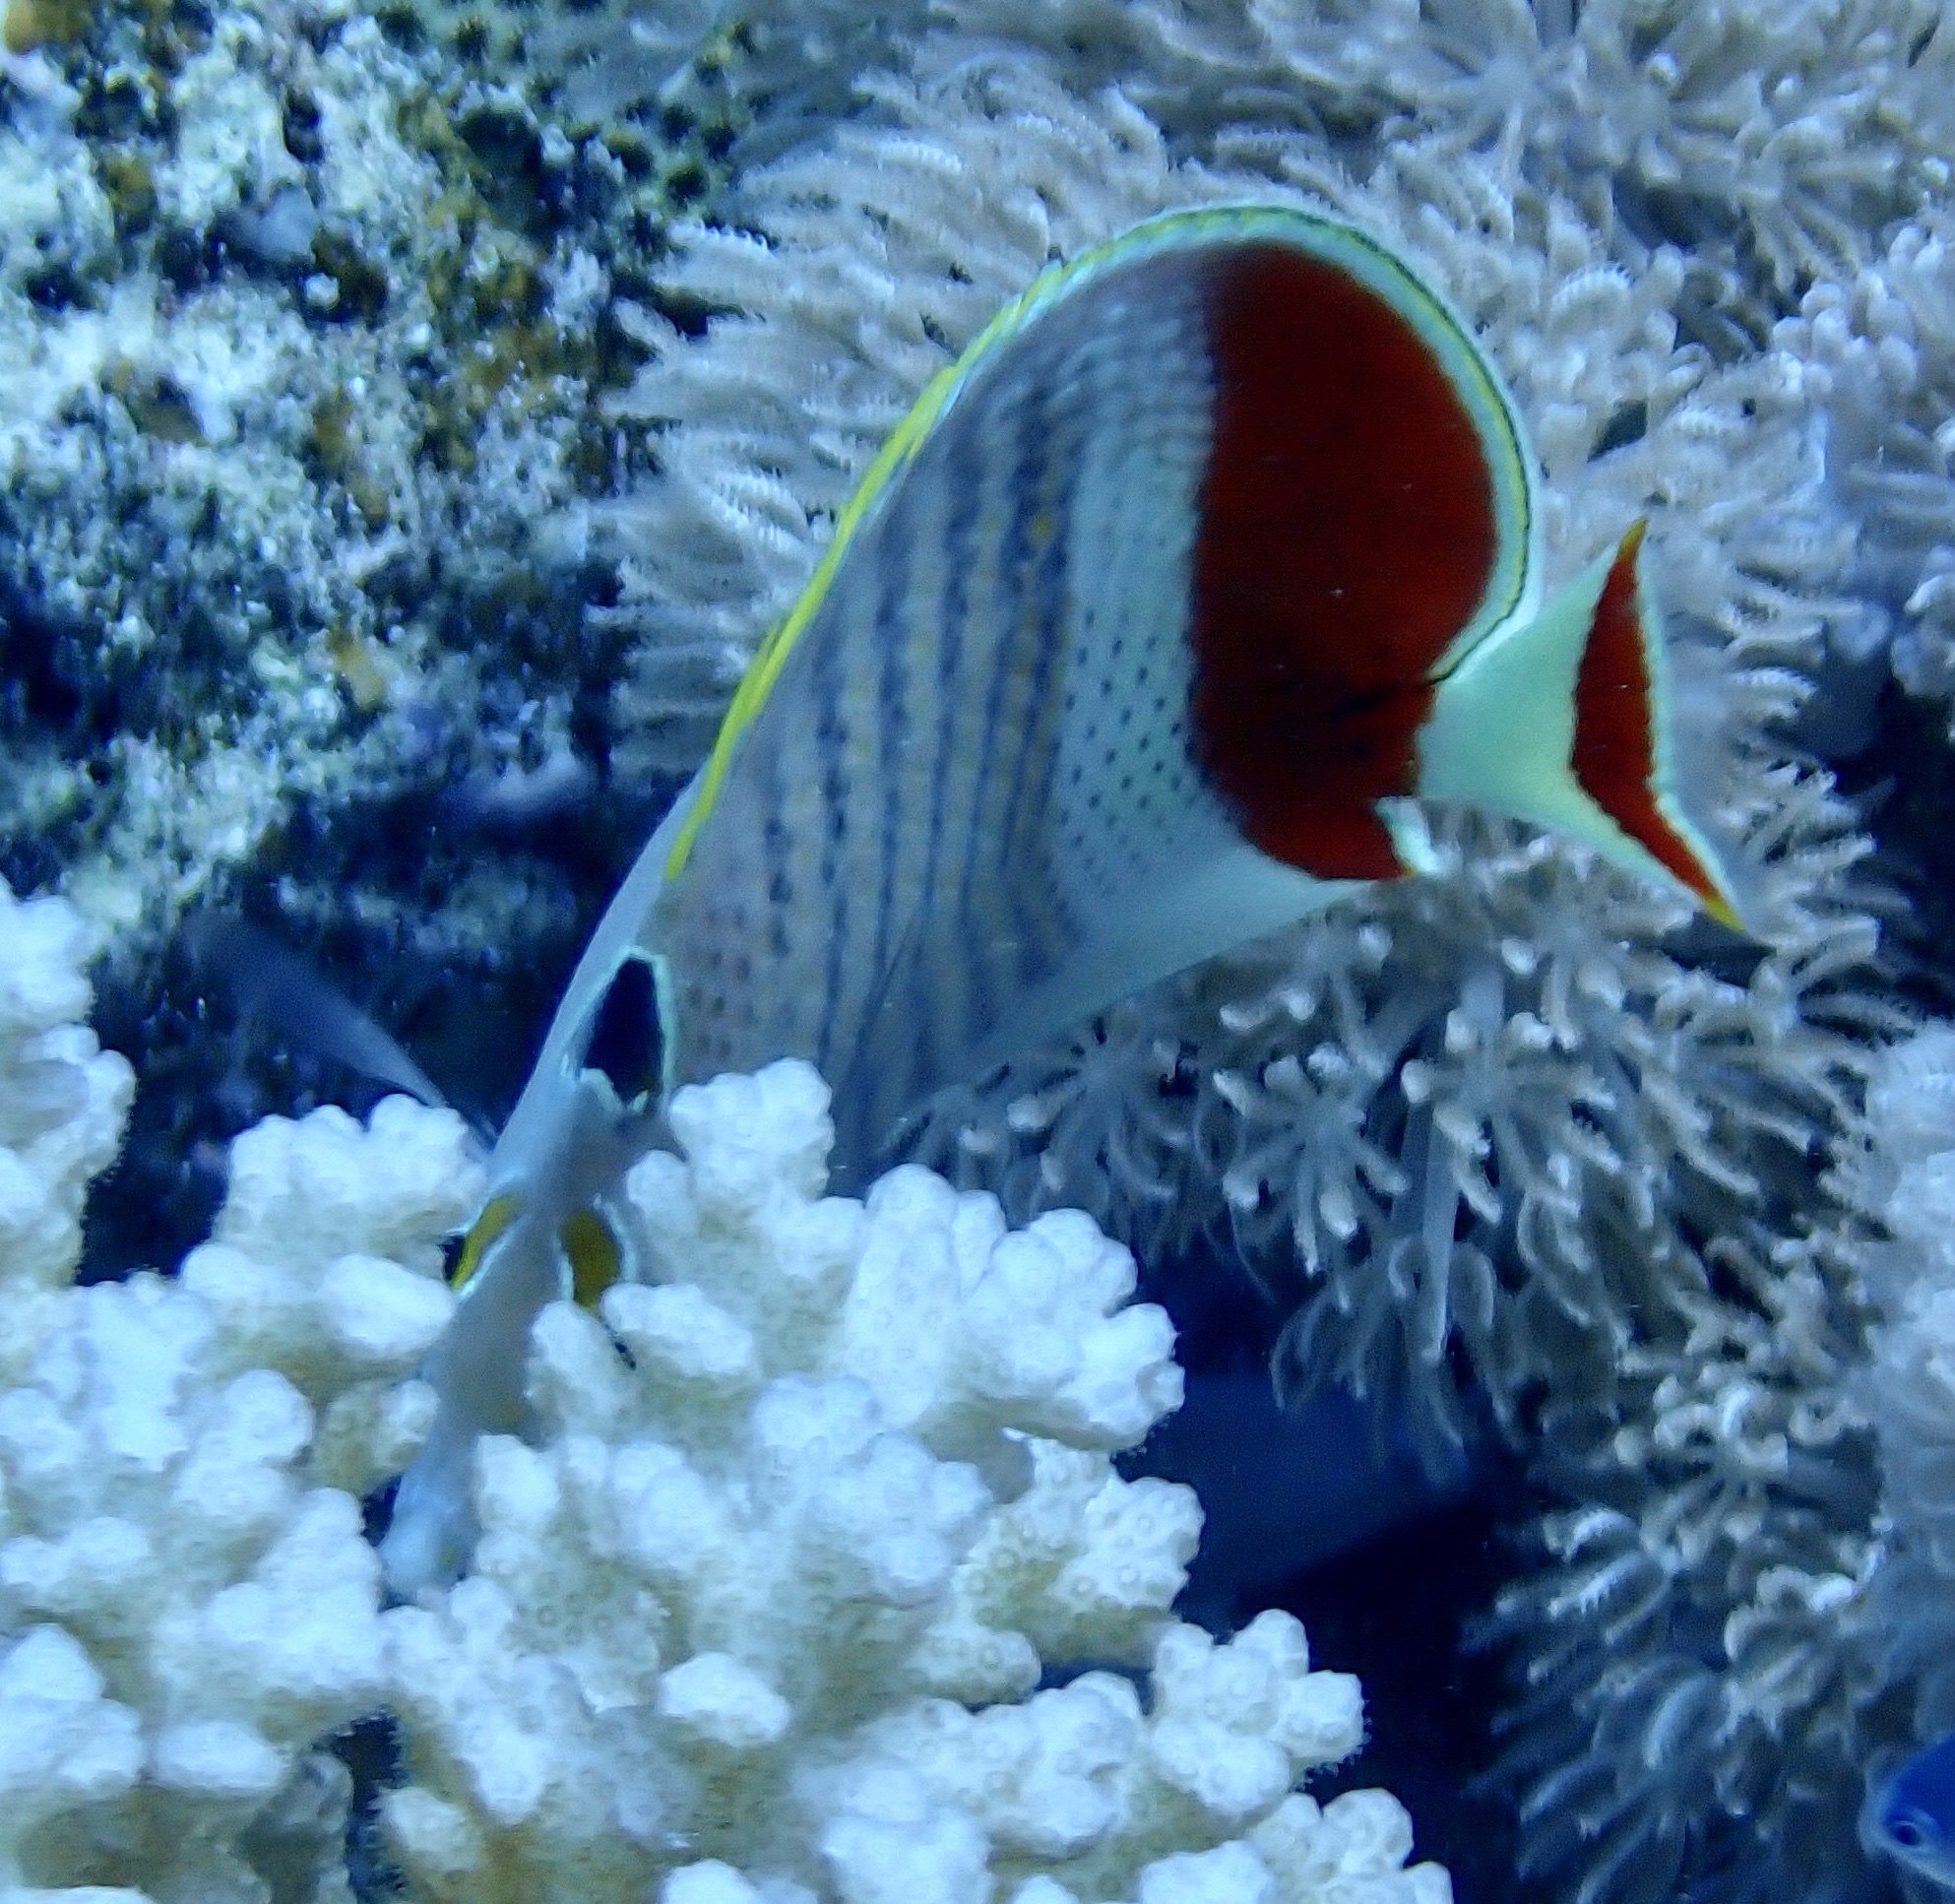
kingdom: Animalia
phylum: Chordata
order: Perciformes
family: Chaetodontidae
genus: Chaetodon
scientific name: Chaetodon paucifasciatus
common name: Crown butterflyfish
